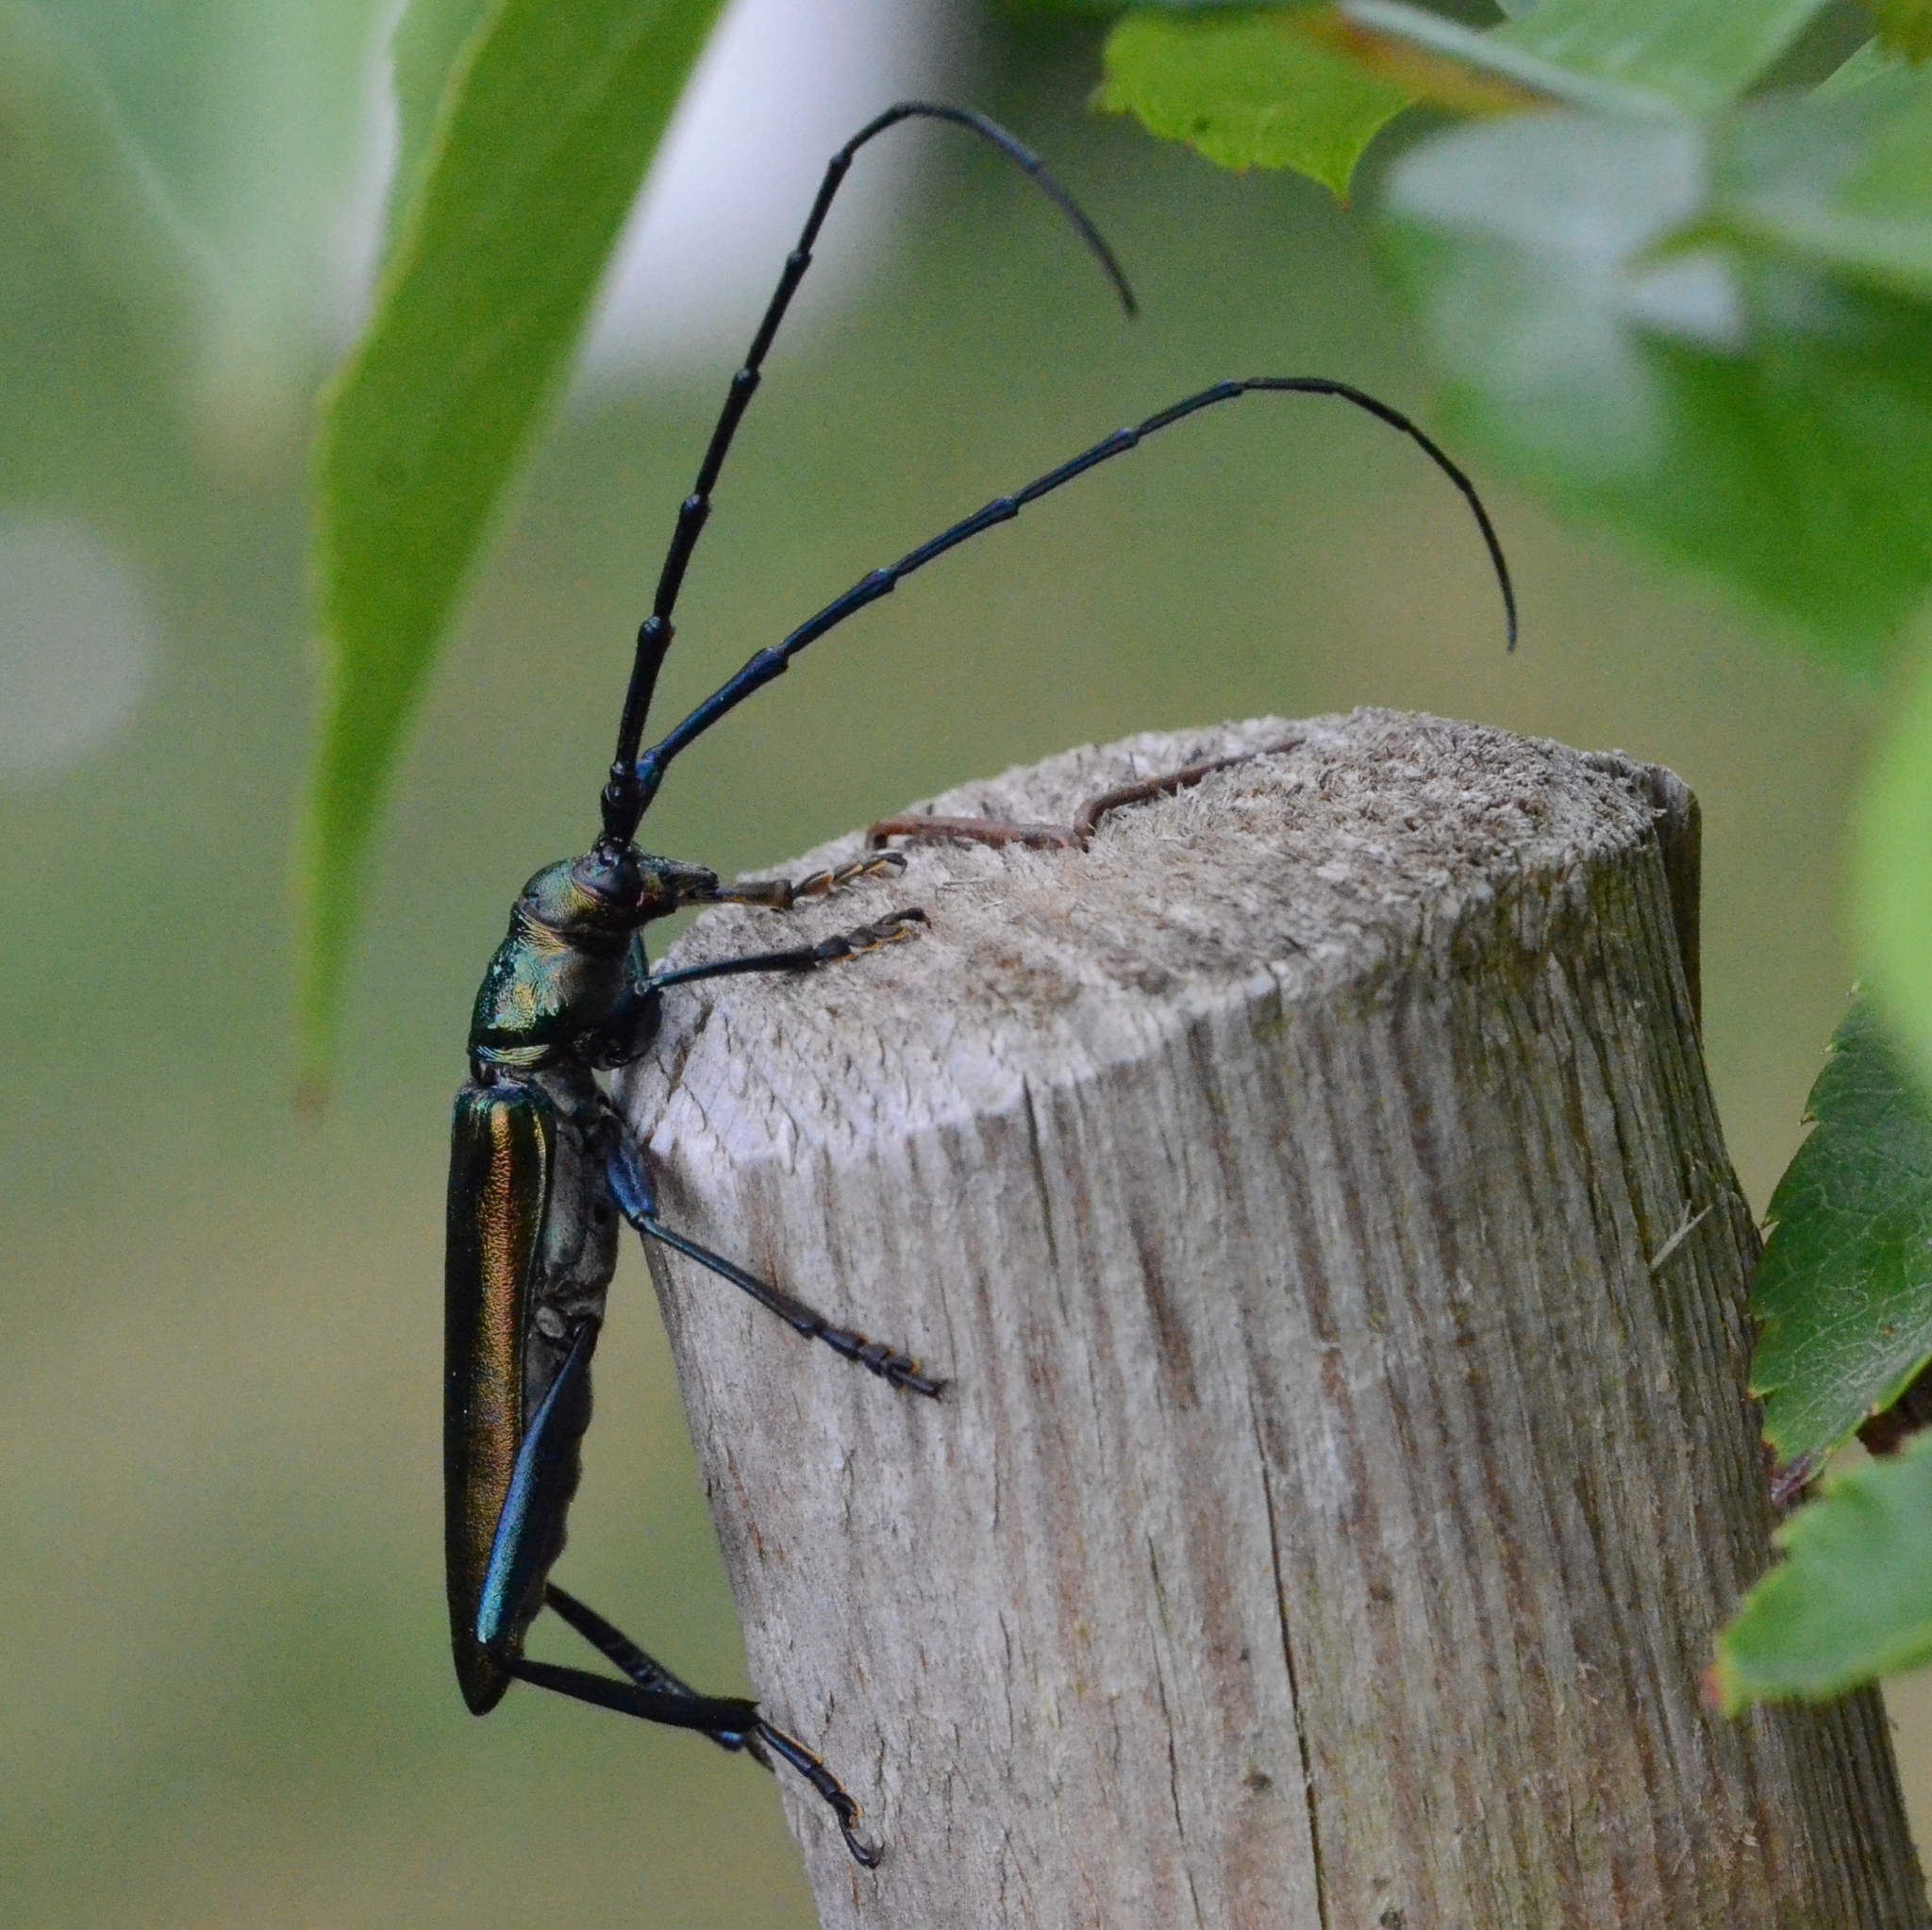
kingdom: Animalia
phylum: Arthropoda
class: Insecta
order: Coleoptera
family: Cerambycidae
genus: Aromia
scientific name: Aromia moschata
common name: Musk beetle
